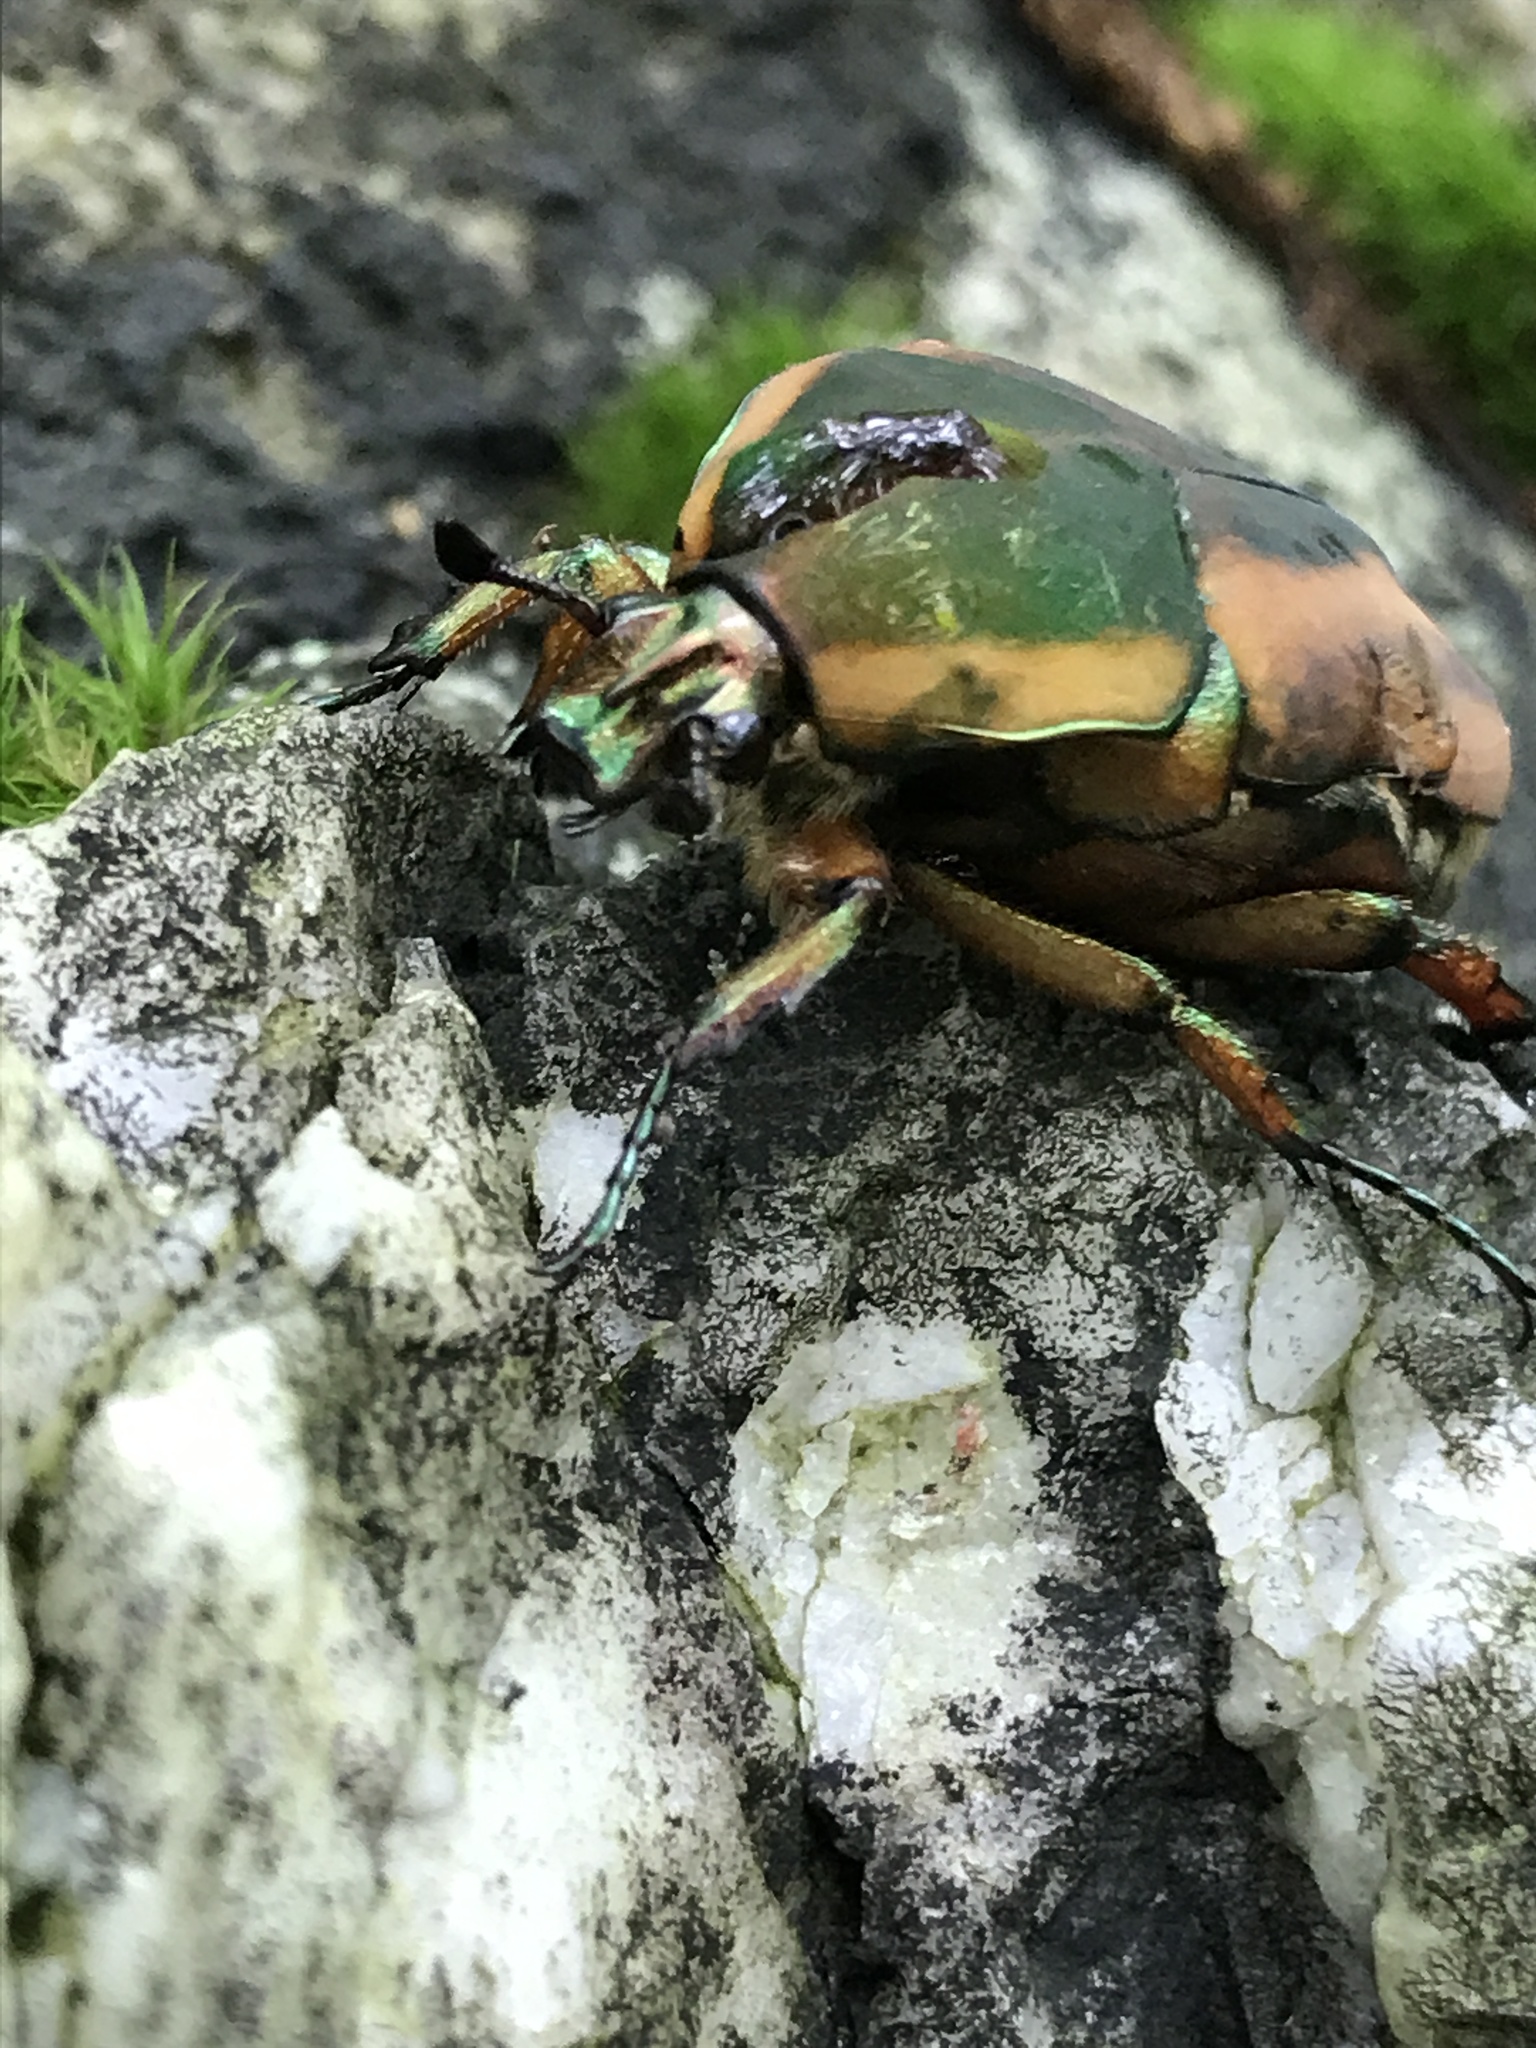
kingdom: Animalia
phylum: Arthropoda
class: Insecta
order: Coleoptera
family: Scarabaeidae
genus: Cotinis
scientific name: Cotinis nitida
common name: Common green june beetle
